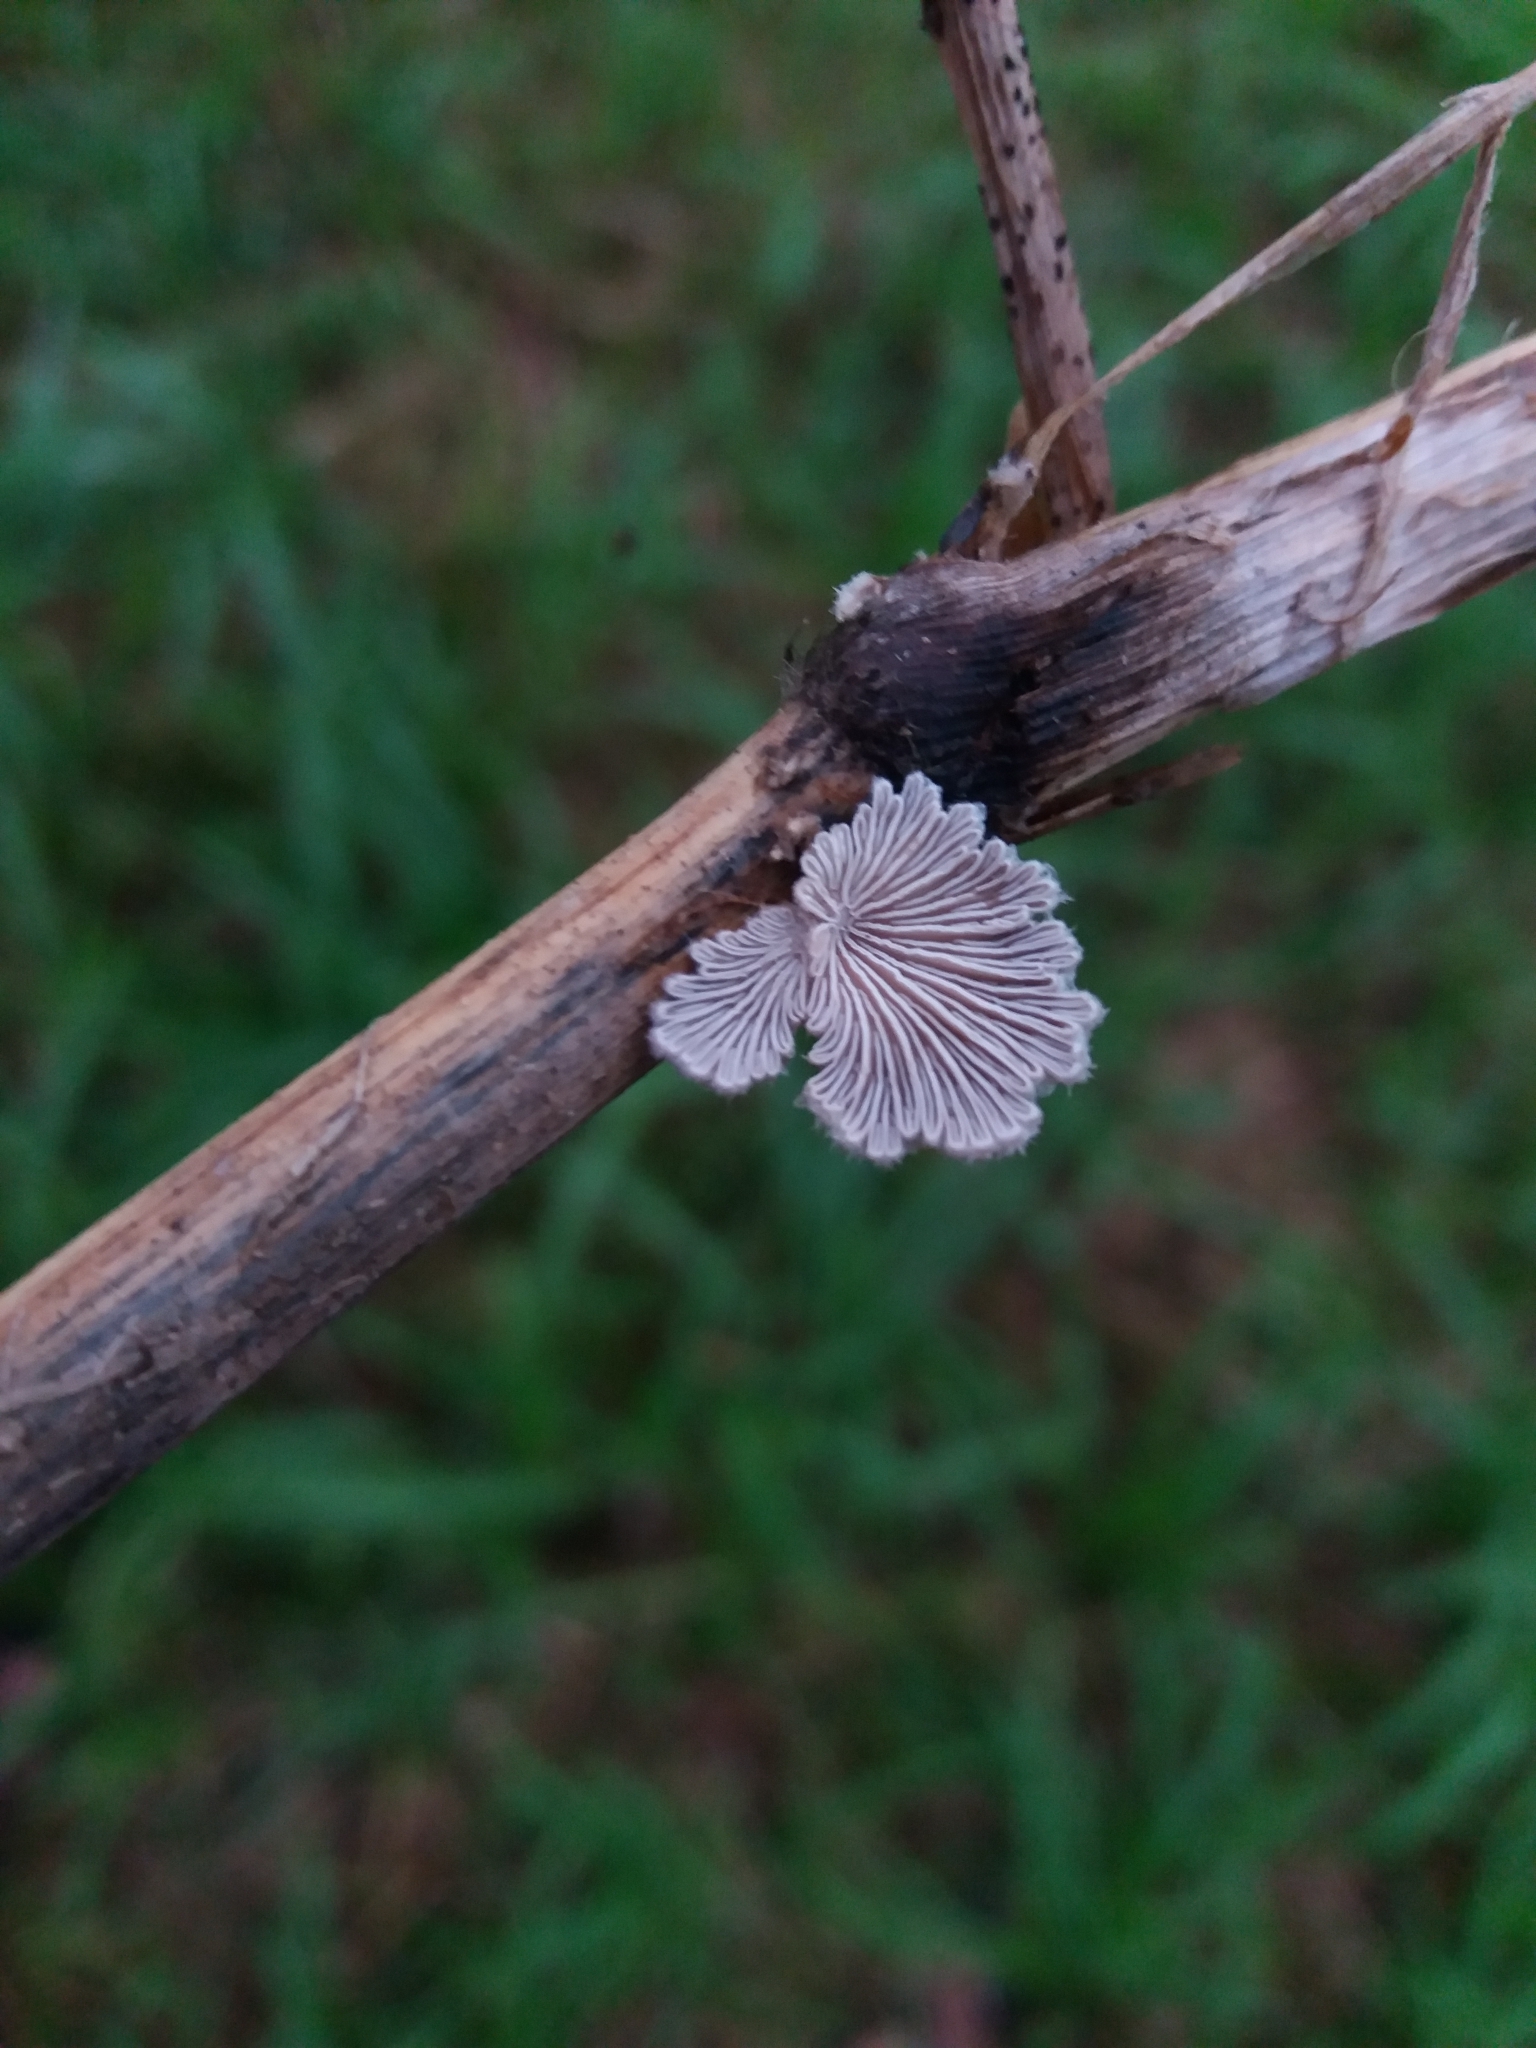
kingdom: Fungi
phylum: Basidiomycota
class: Agaricomycetes
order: Agaricales
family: Schizophyllaceae
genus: Schizophyllum
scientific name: Schizophyllum commune
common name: Common porecrust
